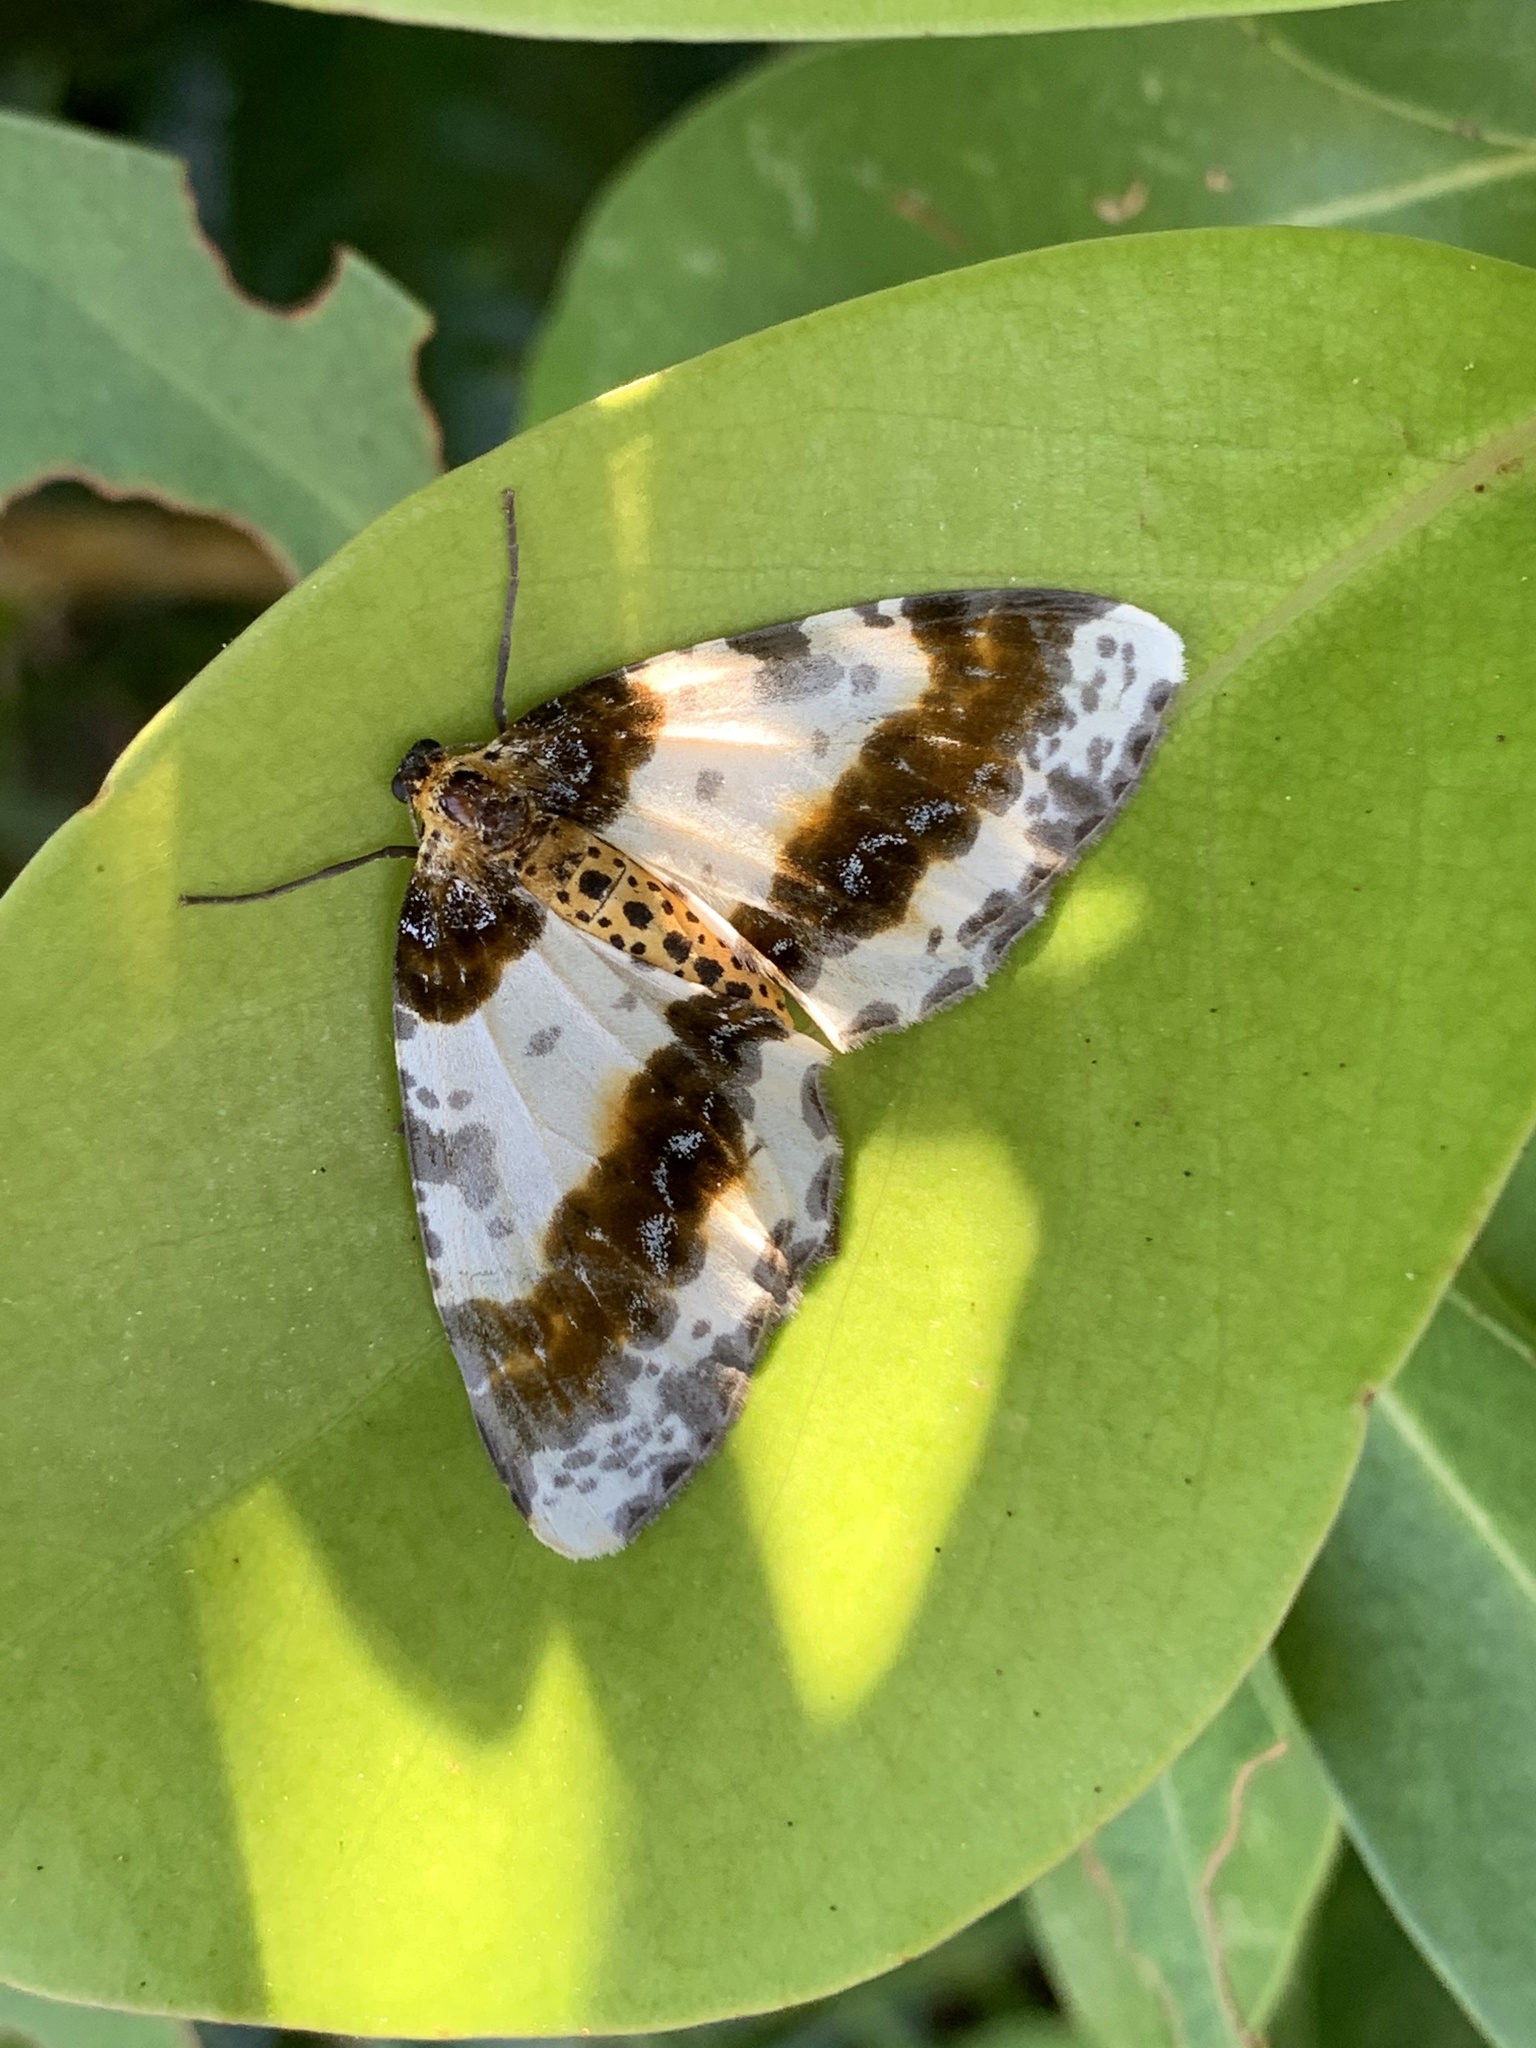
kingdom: Animalia
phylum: Arthropoda
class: Insecta
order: Lepidoptera
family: Geometridae
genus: Abraxas
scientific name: Abraxas miranda
